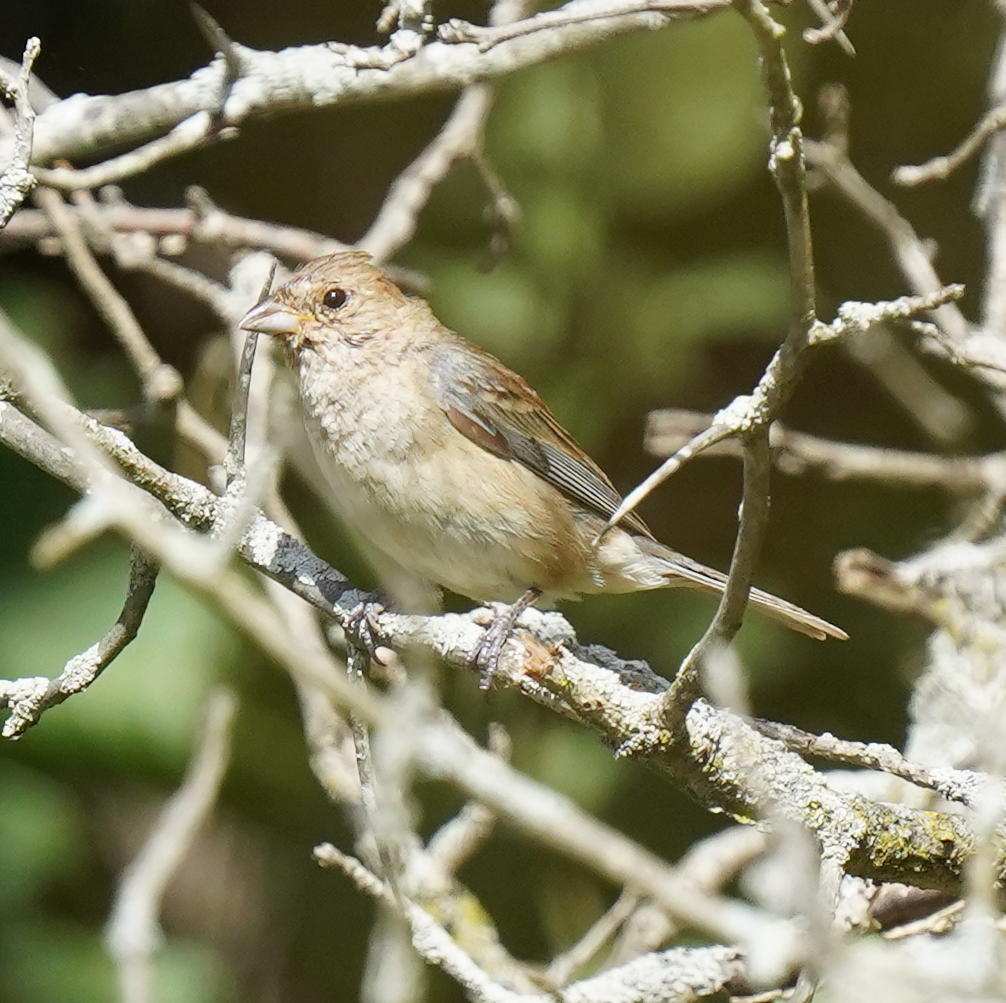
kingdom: Animalia
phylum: Chordata
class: Aves
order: Passeriformes
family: Cardinalidae
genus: Passerina
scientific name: Passerina cyanea
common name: Indigo bunting
